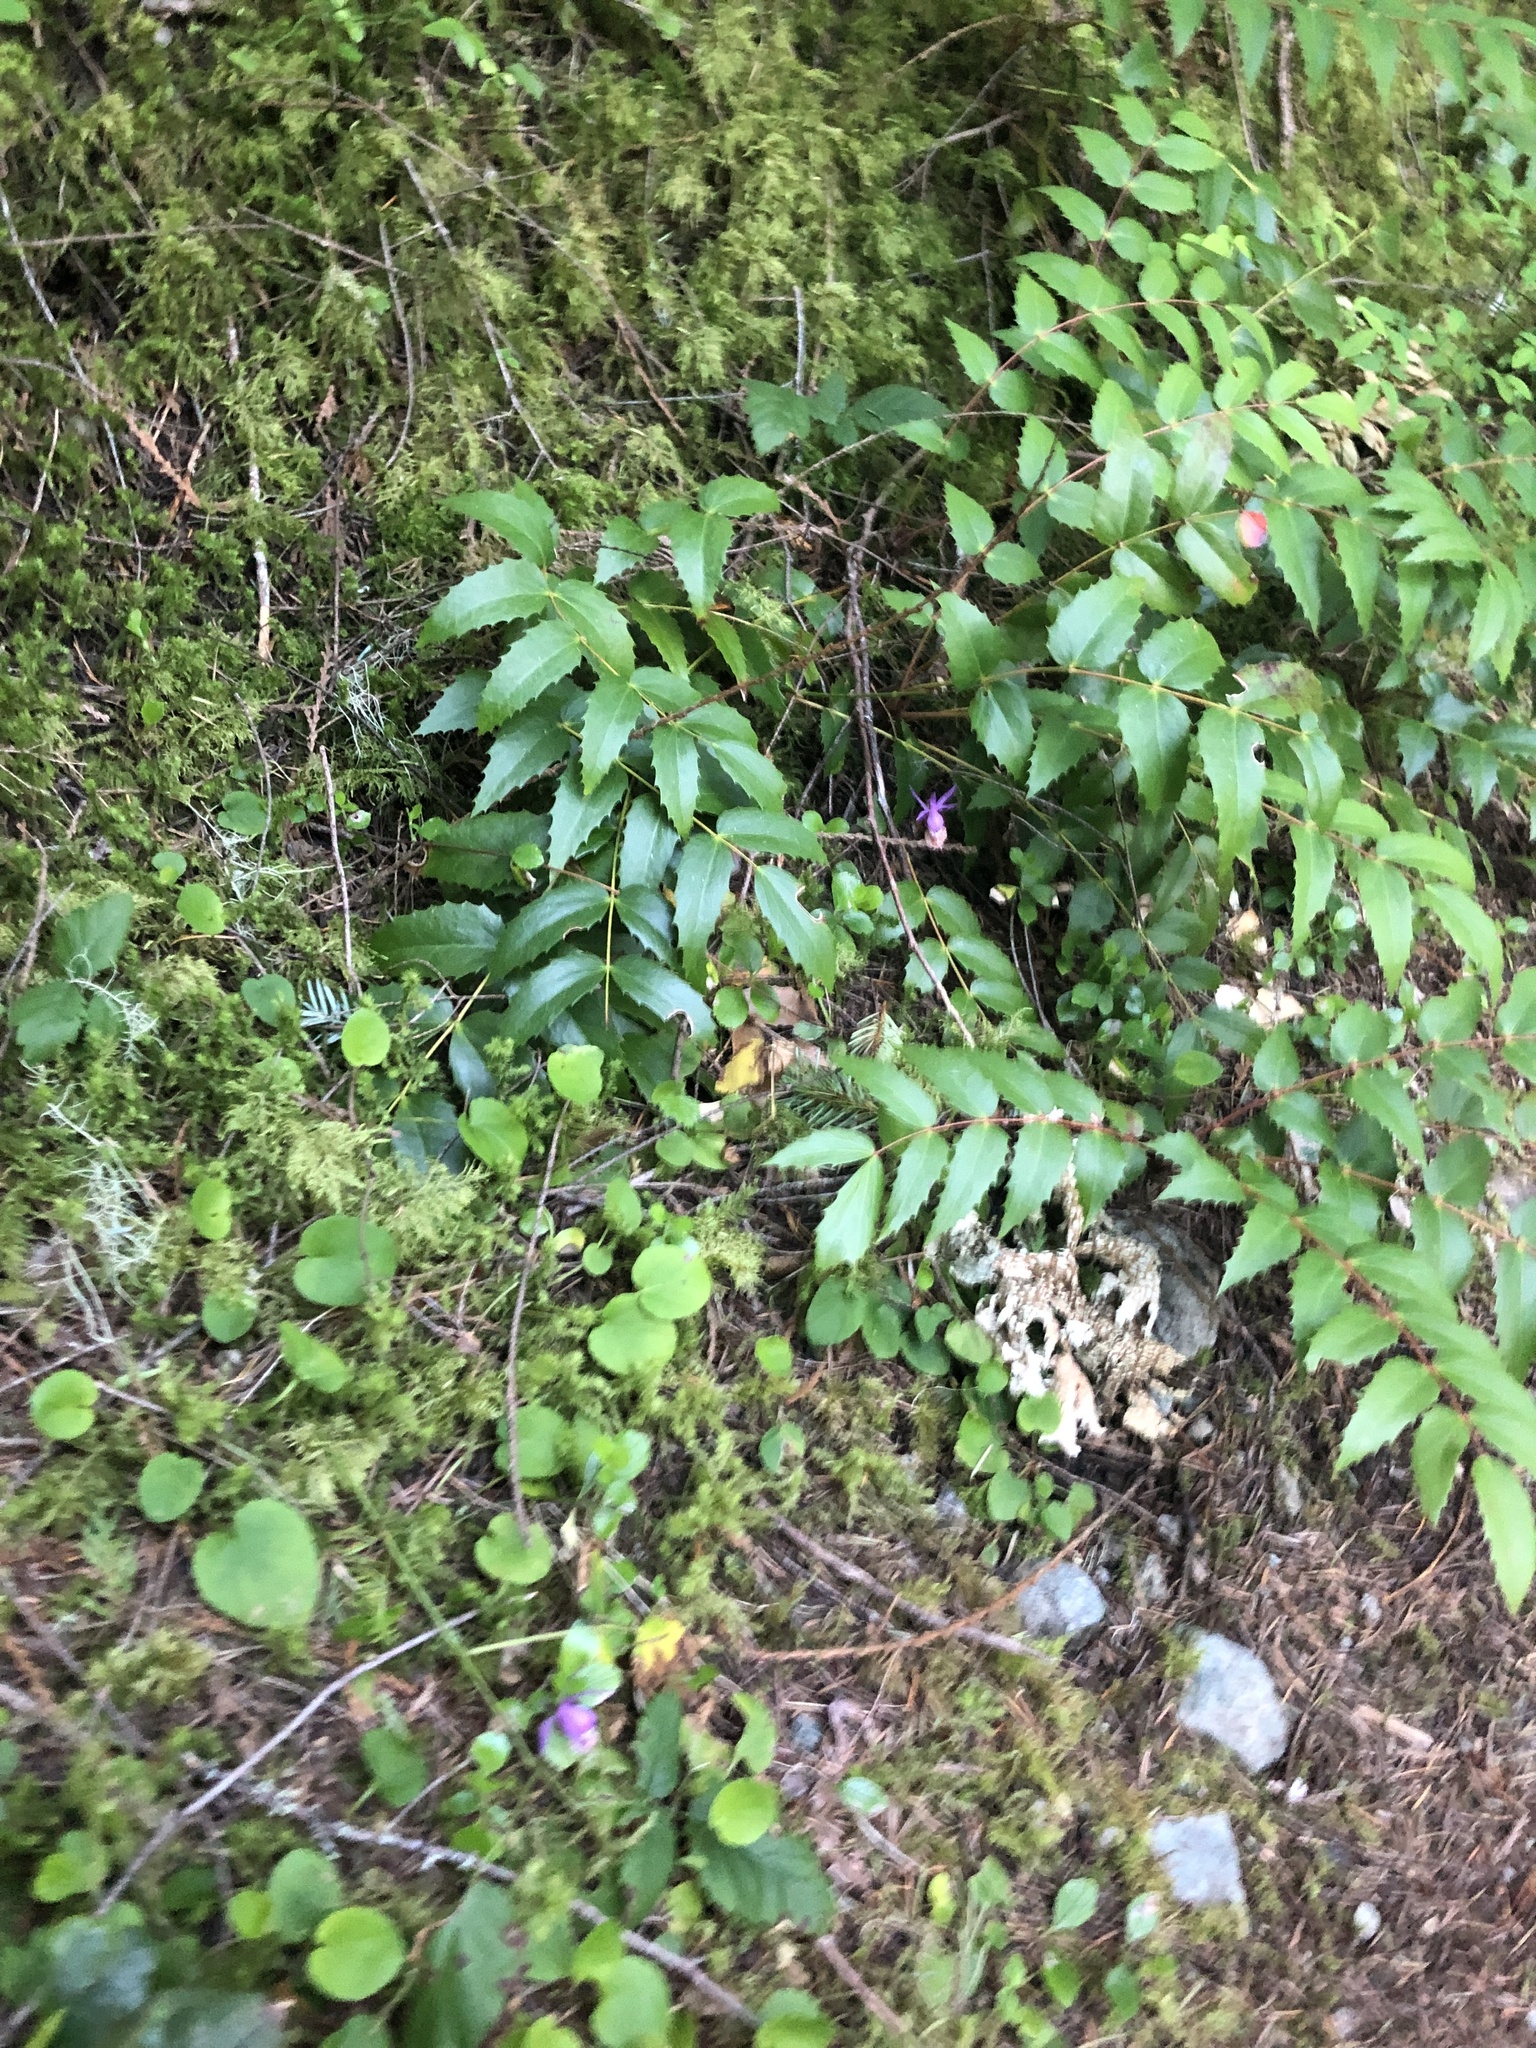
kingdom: Plantae
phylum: Tracheophyta
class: Liliopsida
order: Asparagales
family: Orchidaceae
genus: Calypso
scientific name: Calypso bulbosa
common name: Calypso
